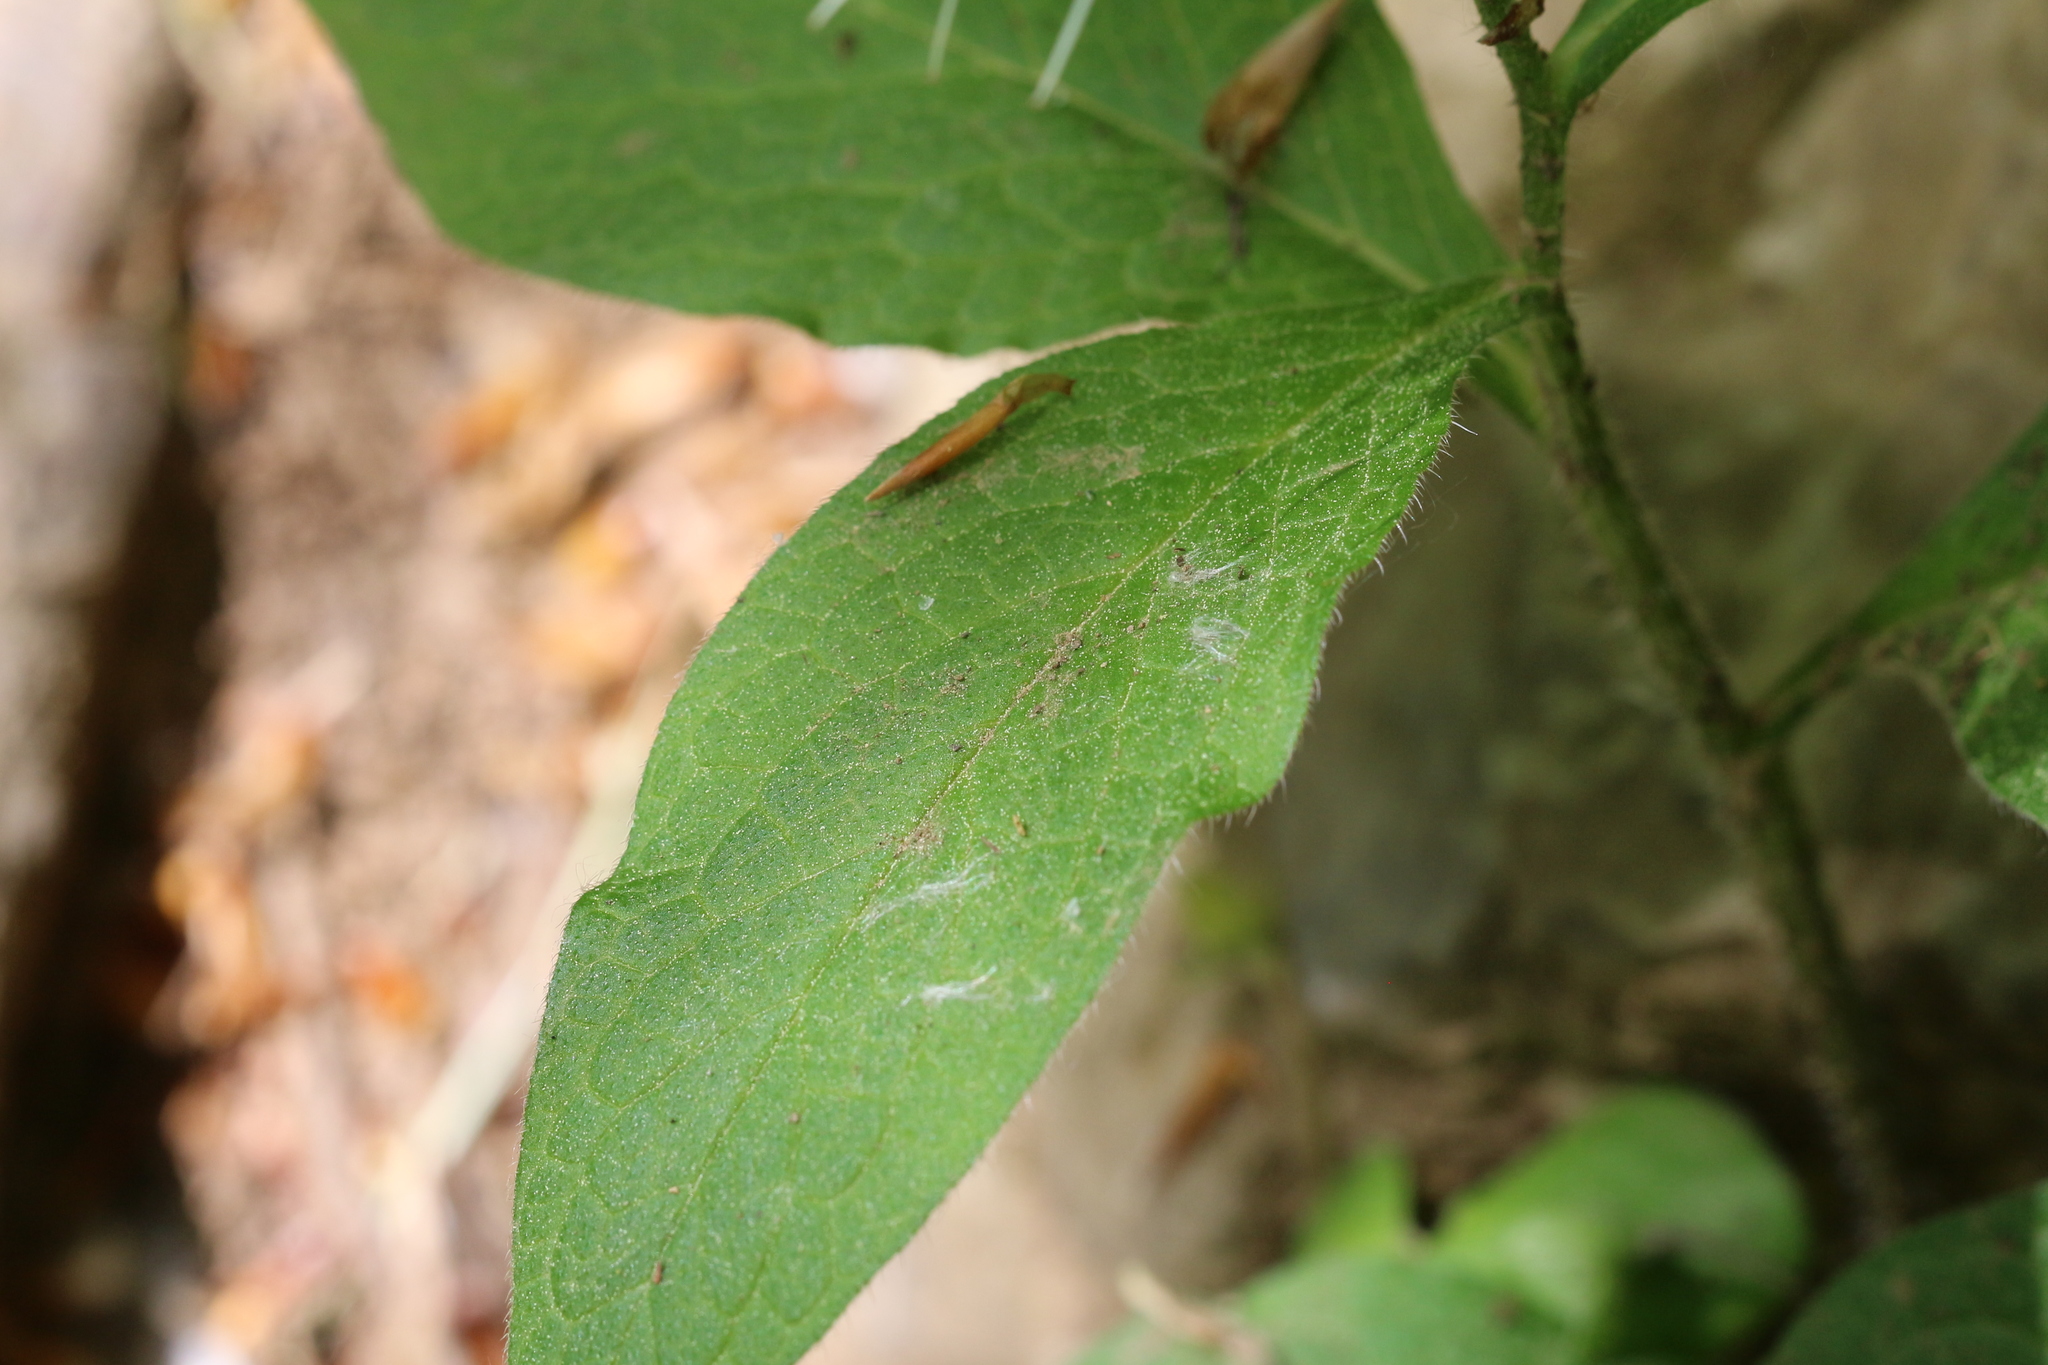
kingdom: Plantae
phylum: Tracheophyta
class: Magnoliopsida
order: Boraginales
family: Boraginaceae
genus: Symphytum
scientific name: Symphytum tuberosum
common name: Tuberous comfrey
